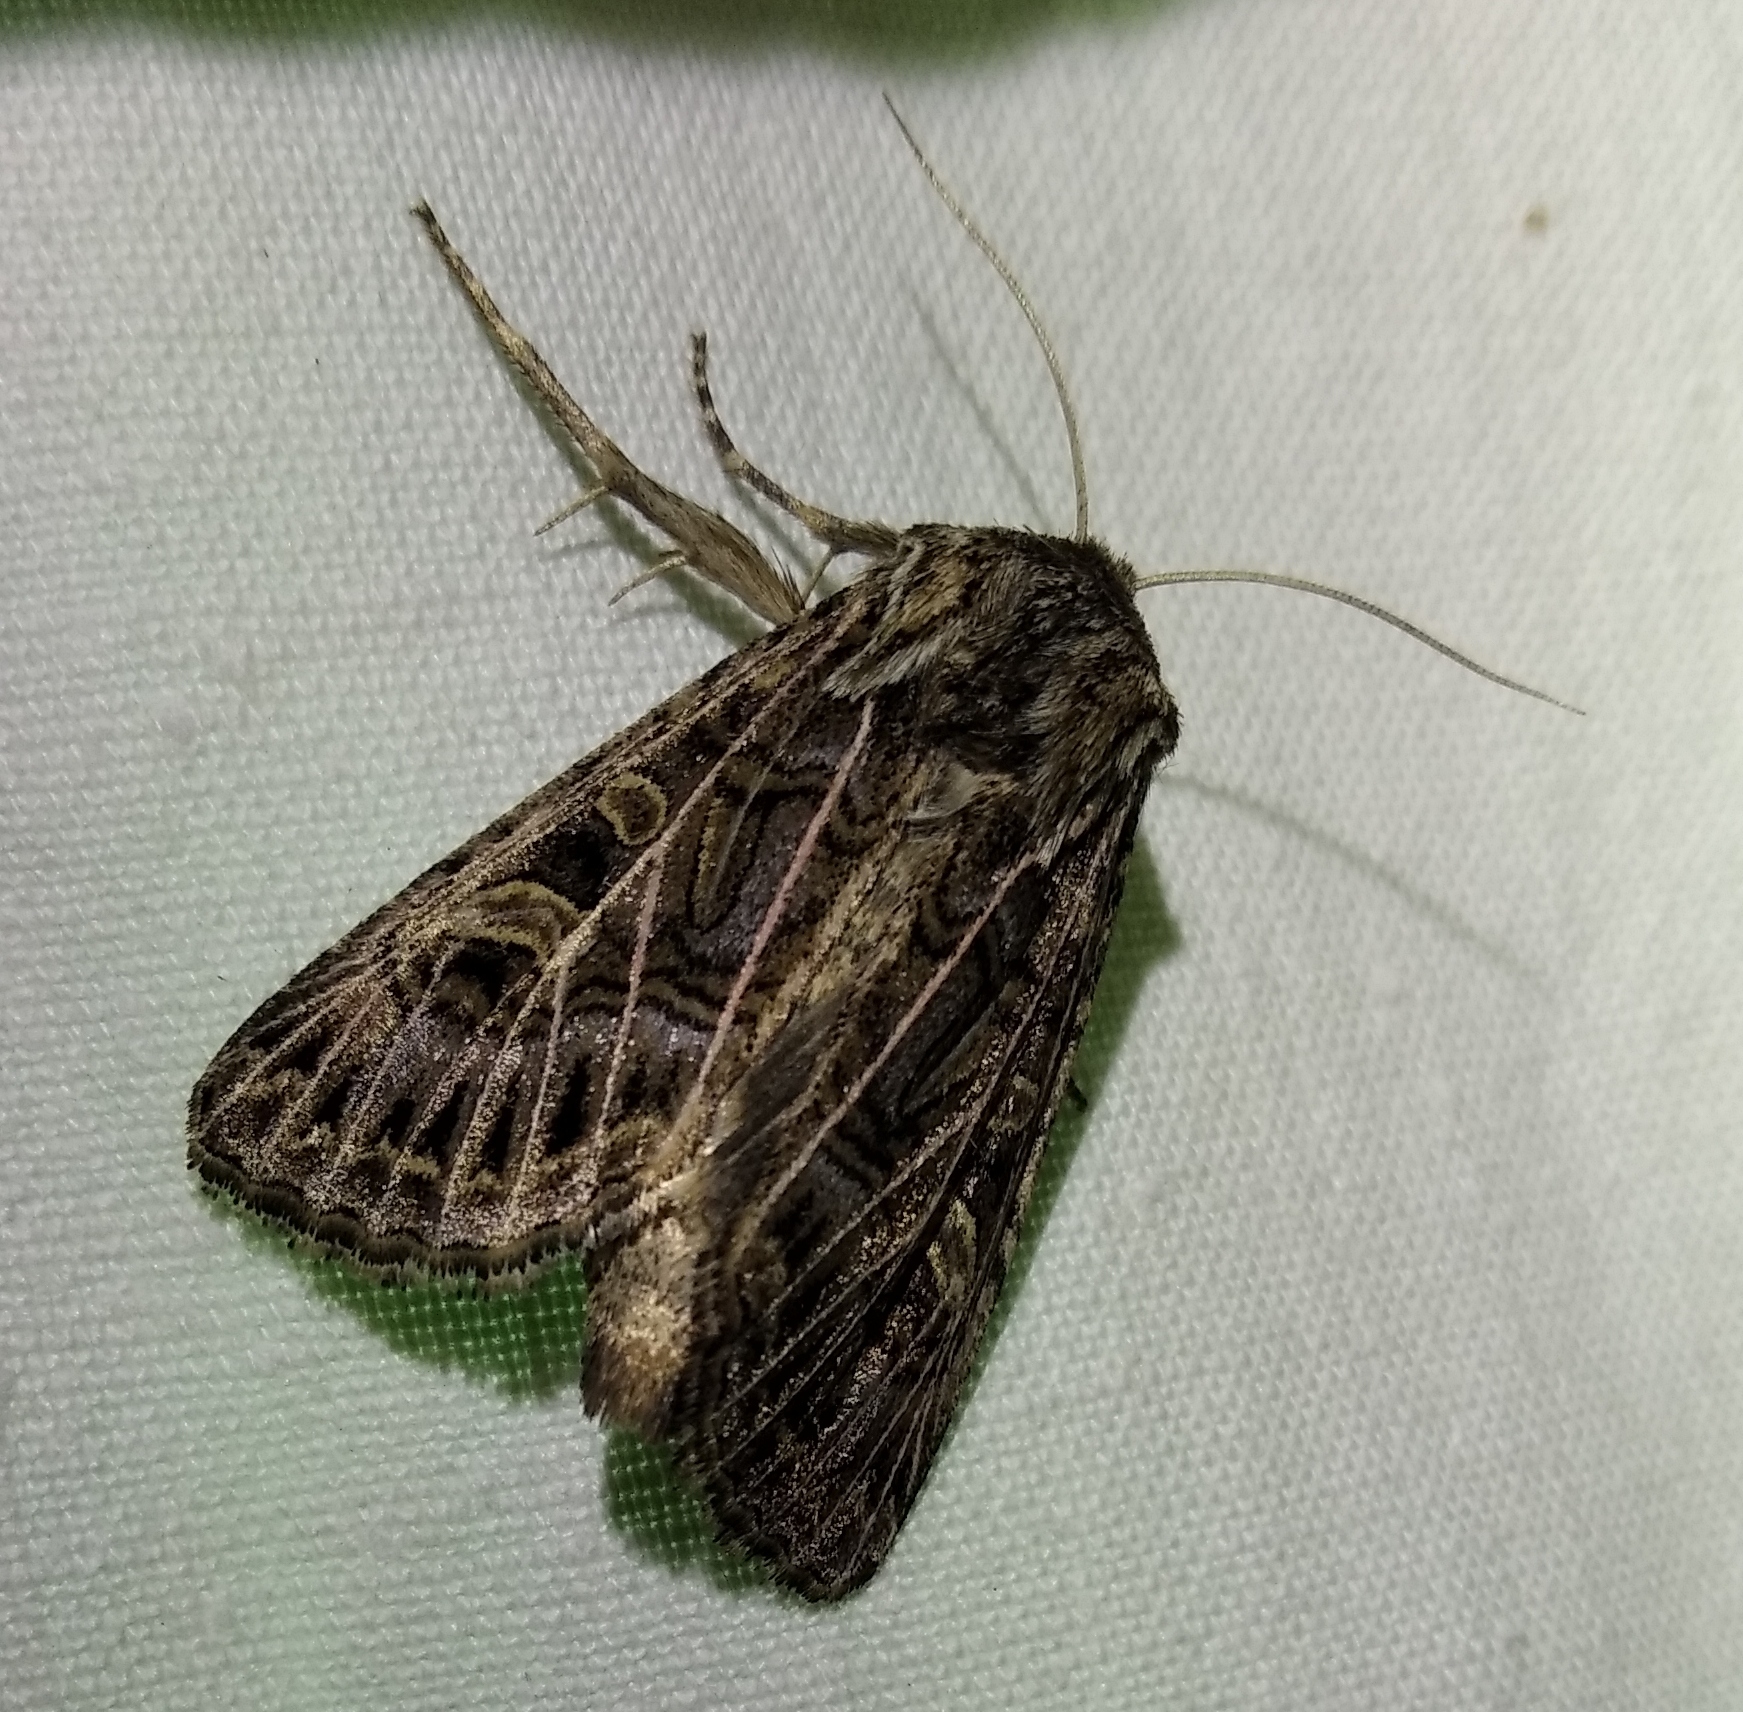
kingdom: Animalia
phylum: Arthropoda
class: Insecta
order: Lepidoptera
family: Noctuidae
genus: Tholera
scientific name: Tholera decimalis
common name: Feathered gothic
